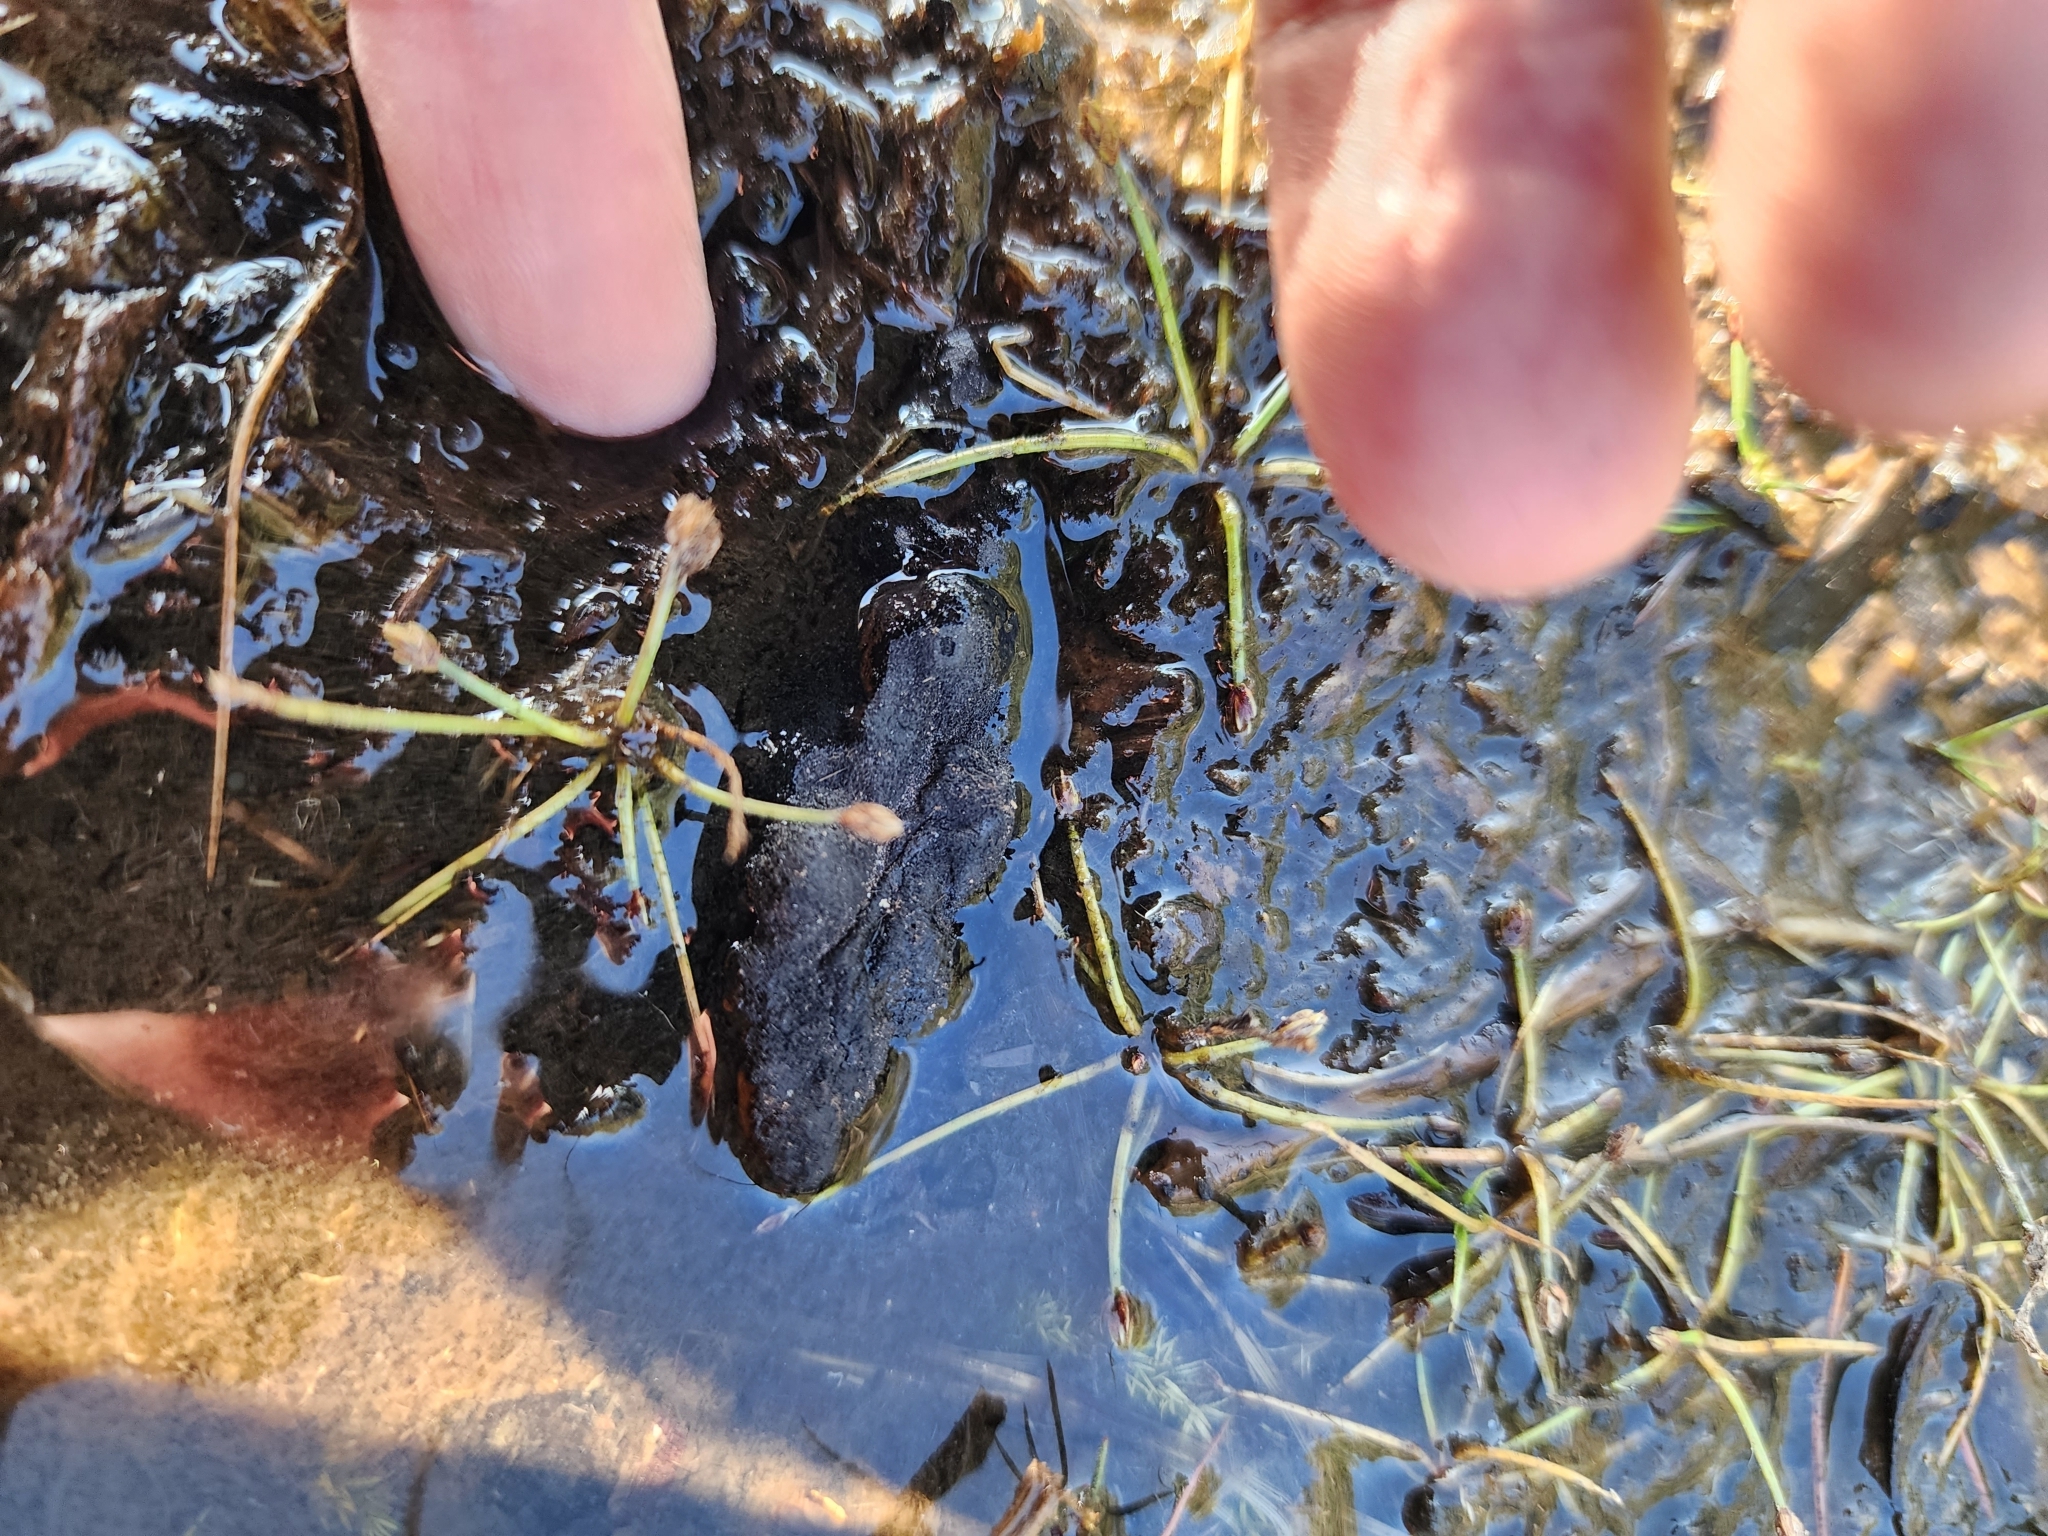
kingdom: Plantae
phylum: Tracheophyta
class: Liliopsida
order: Poales
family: Cyperaceae
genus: Eleocharis
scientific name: Eleocharis flavescens
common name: Yellow spikerush
